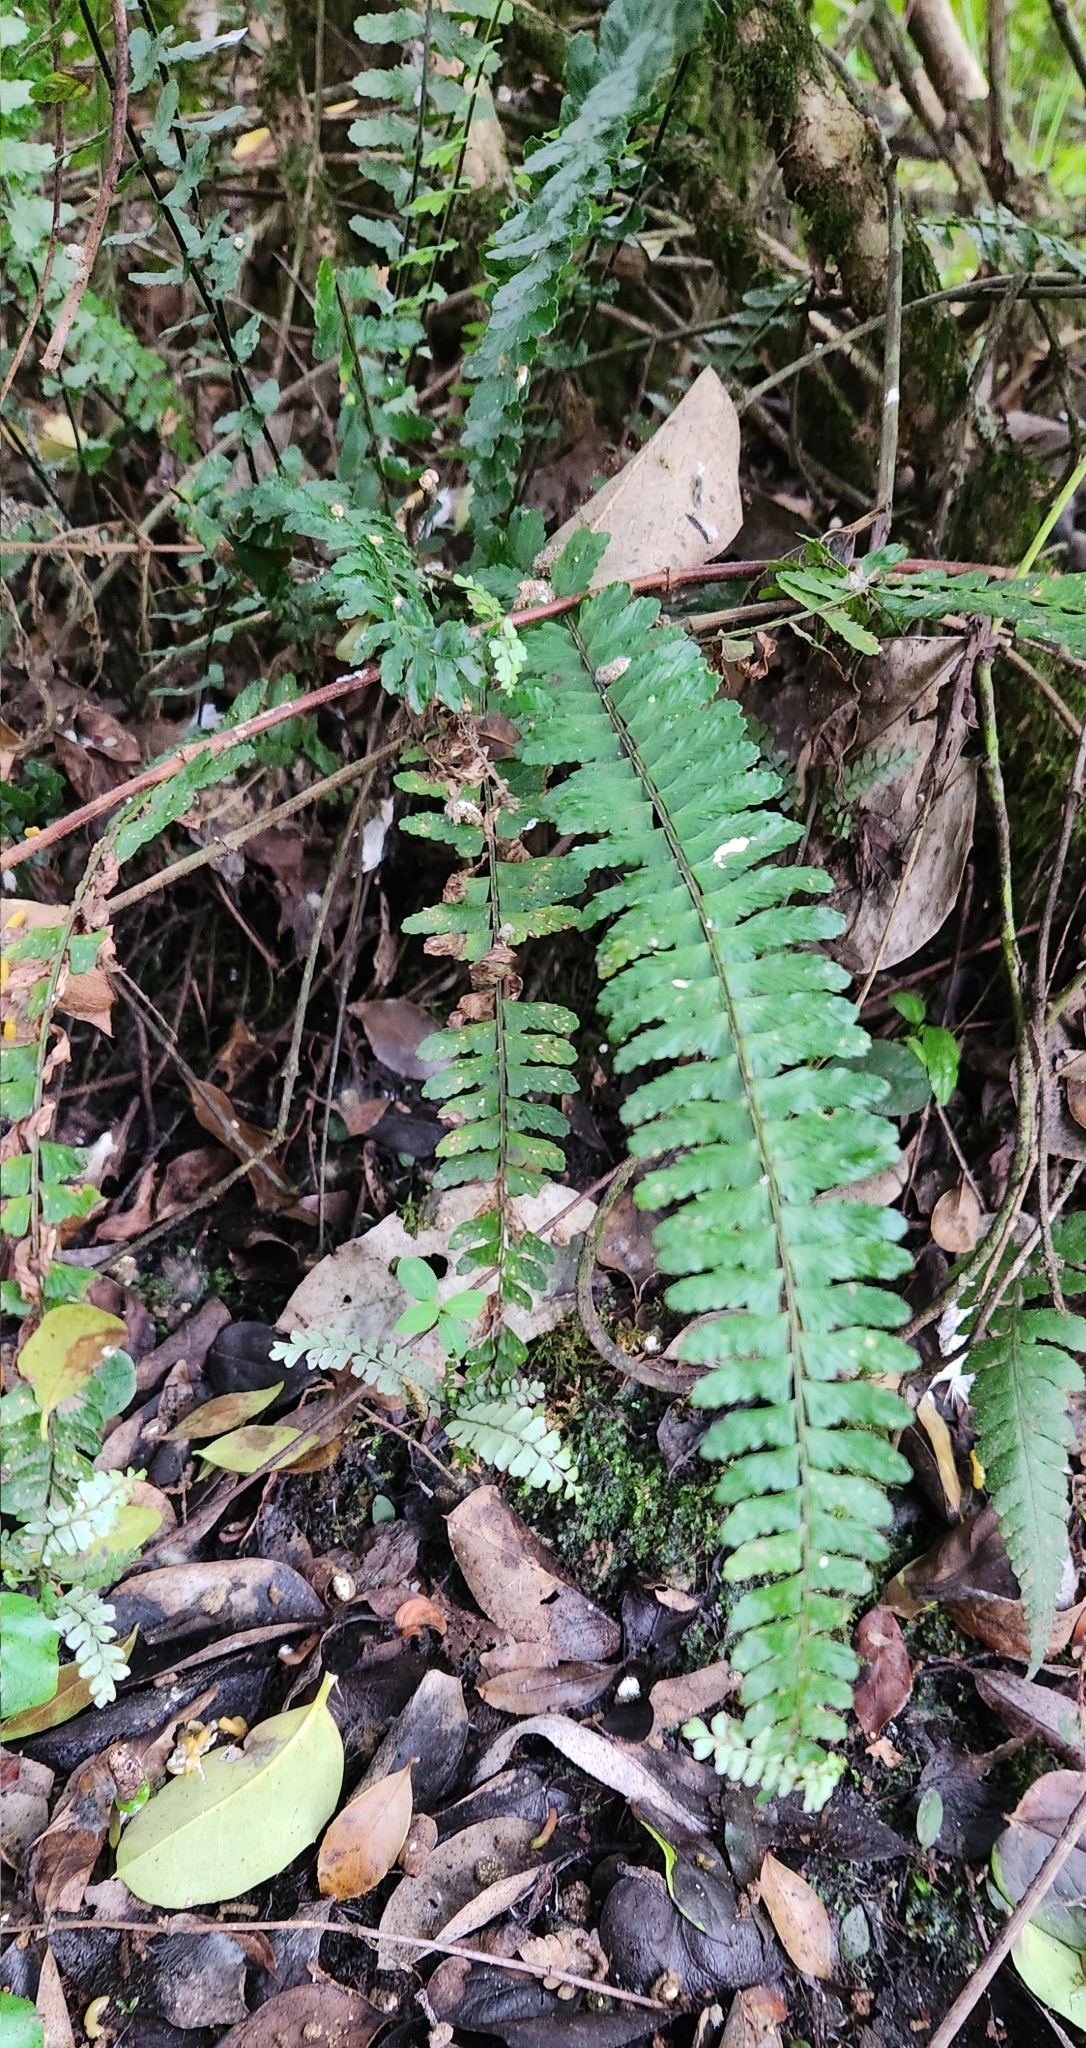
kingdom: Plantae
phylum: Tracheophyta
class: Polypodiopsida
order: Polypodiales
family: Aspleniaceae
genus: Asplenium
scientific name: Asplenium sellowianum
